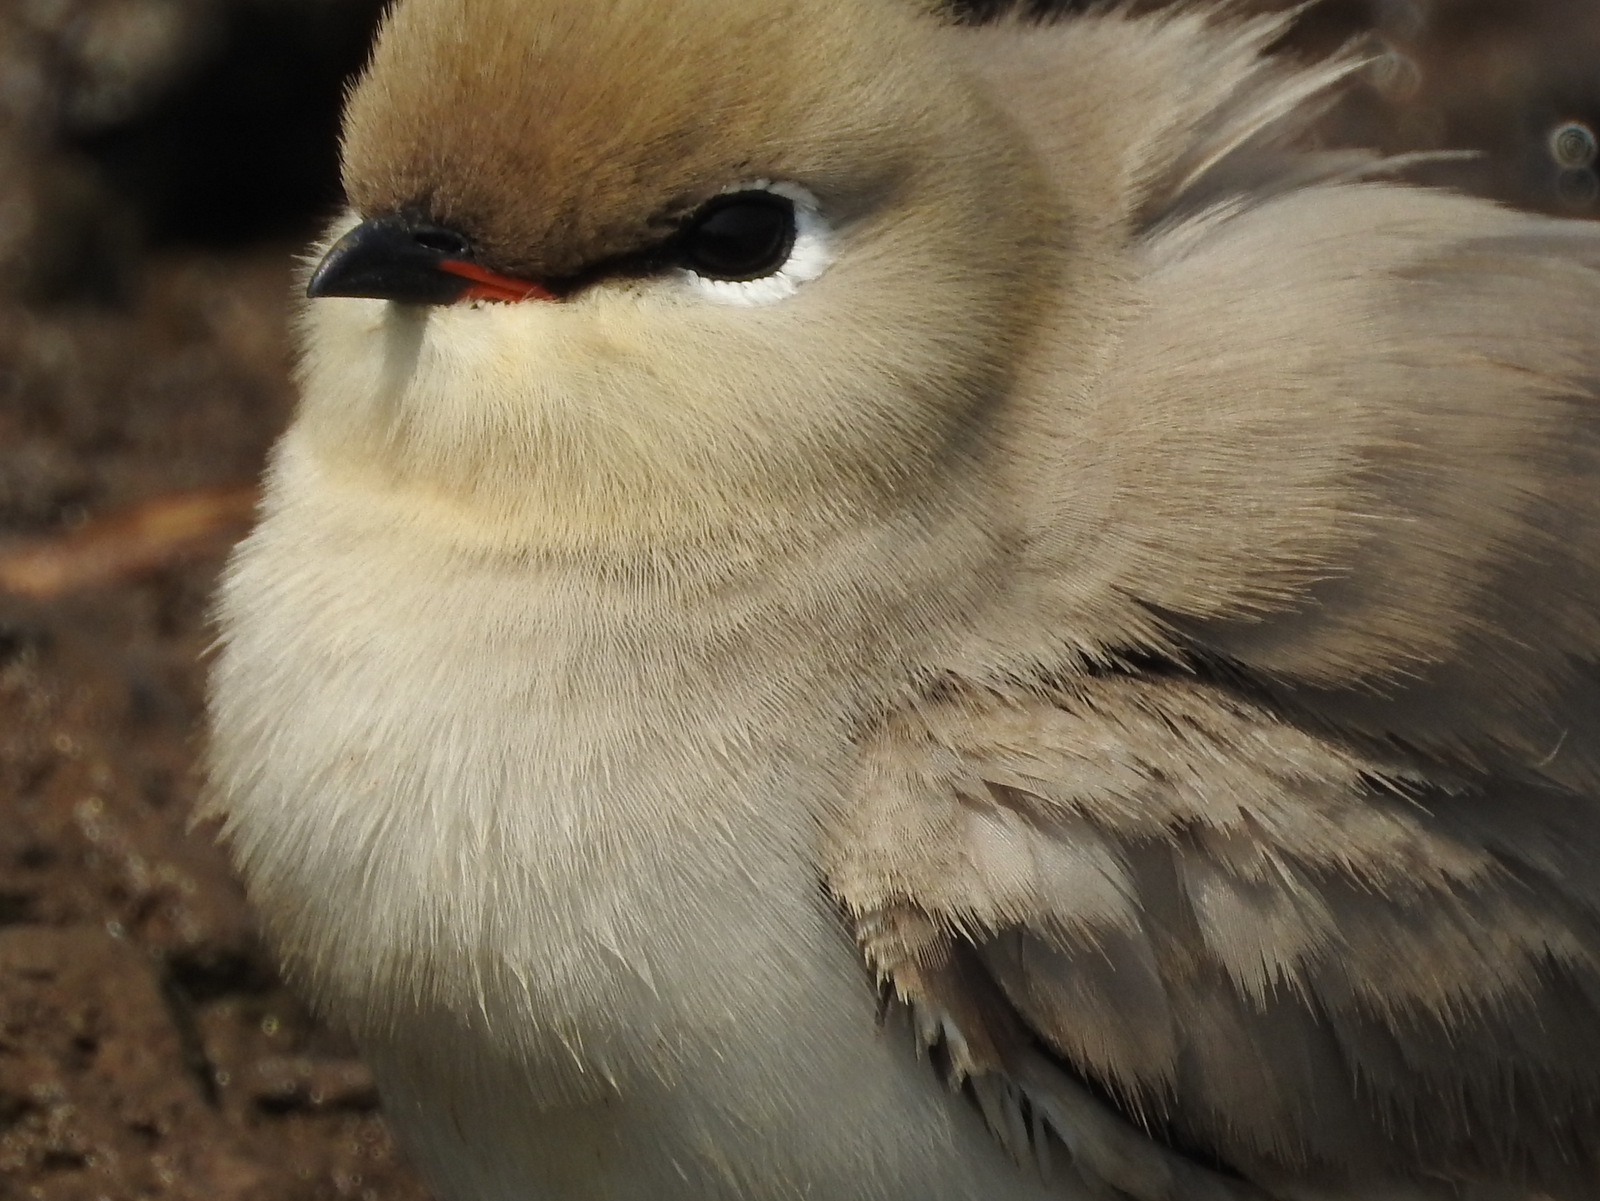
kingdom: Animalia
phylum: Chordata
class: Aves
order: Charadriiformes
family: Glareolidae
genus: Glareola
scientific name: Glareola lactea
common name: Small pratincole
